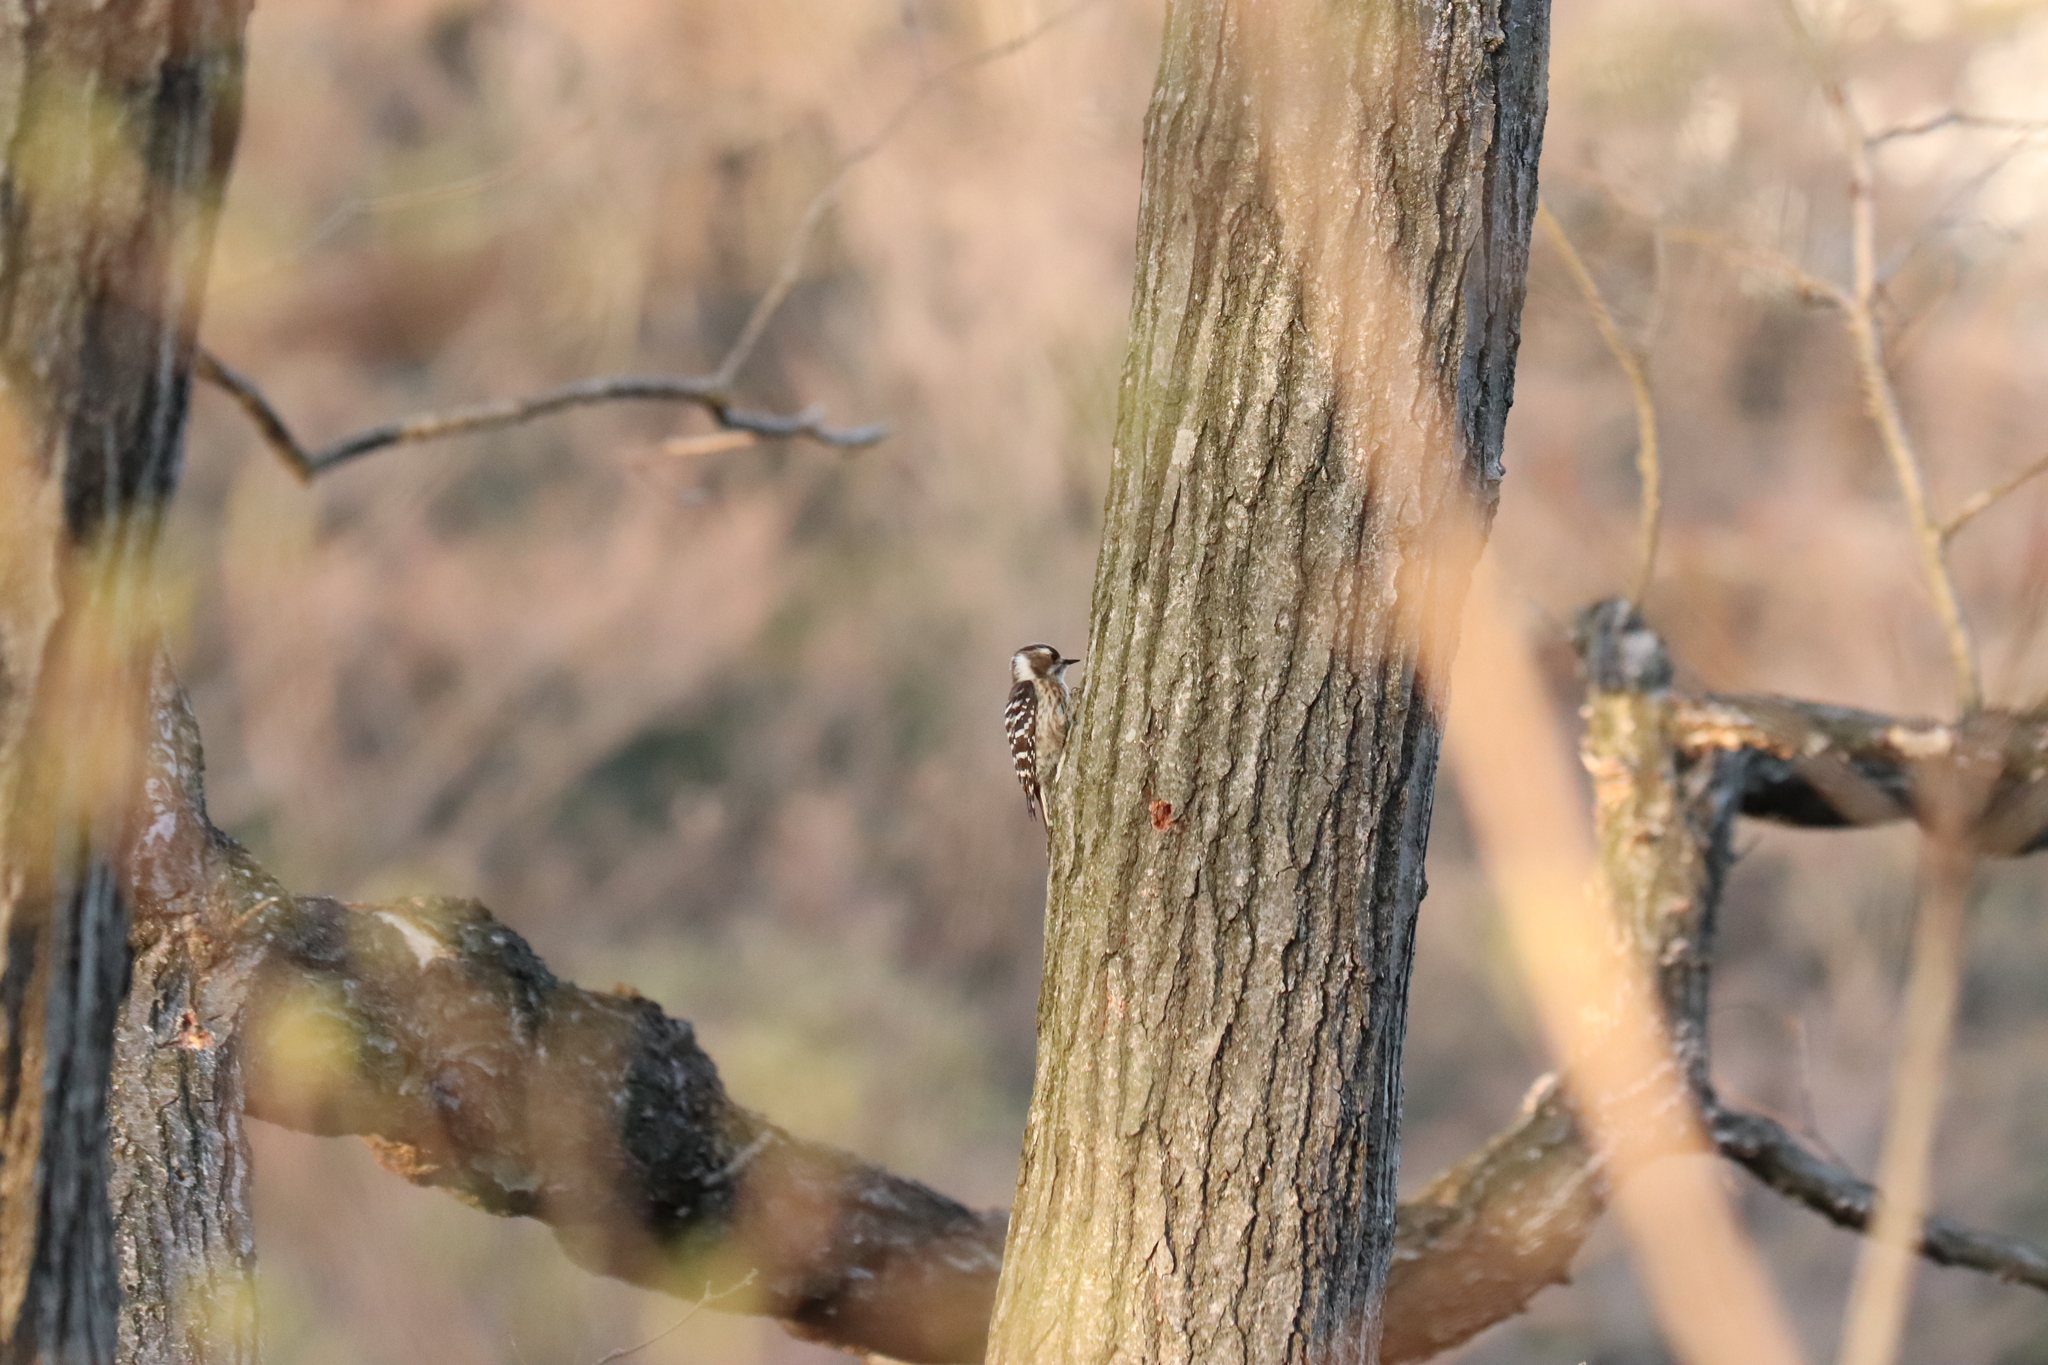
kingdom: Animalia
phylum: Chordata
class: Aves
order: Piciformes
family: Picidae
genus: Yungipicus
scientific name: Yungipicus kizuki
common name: Japanese pygmy woodpecker
